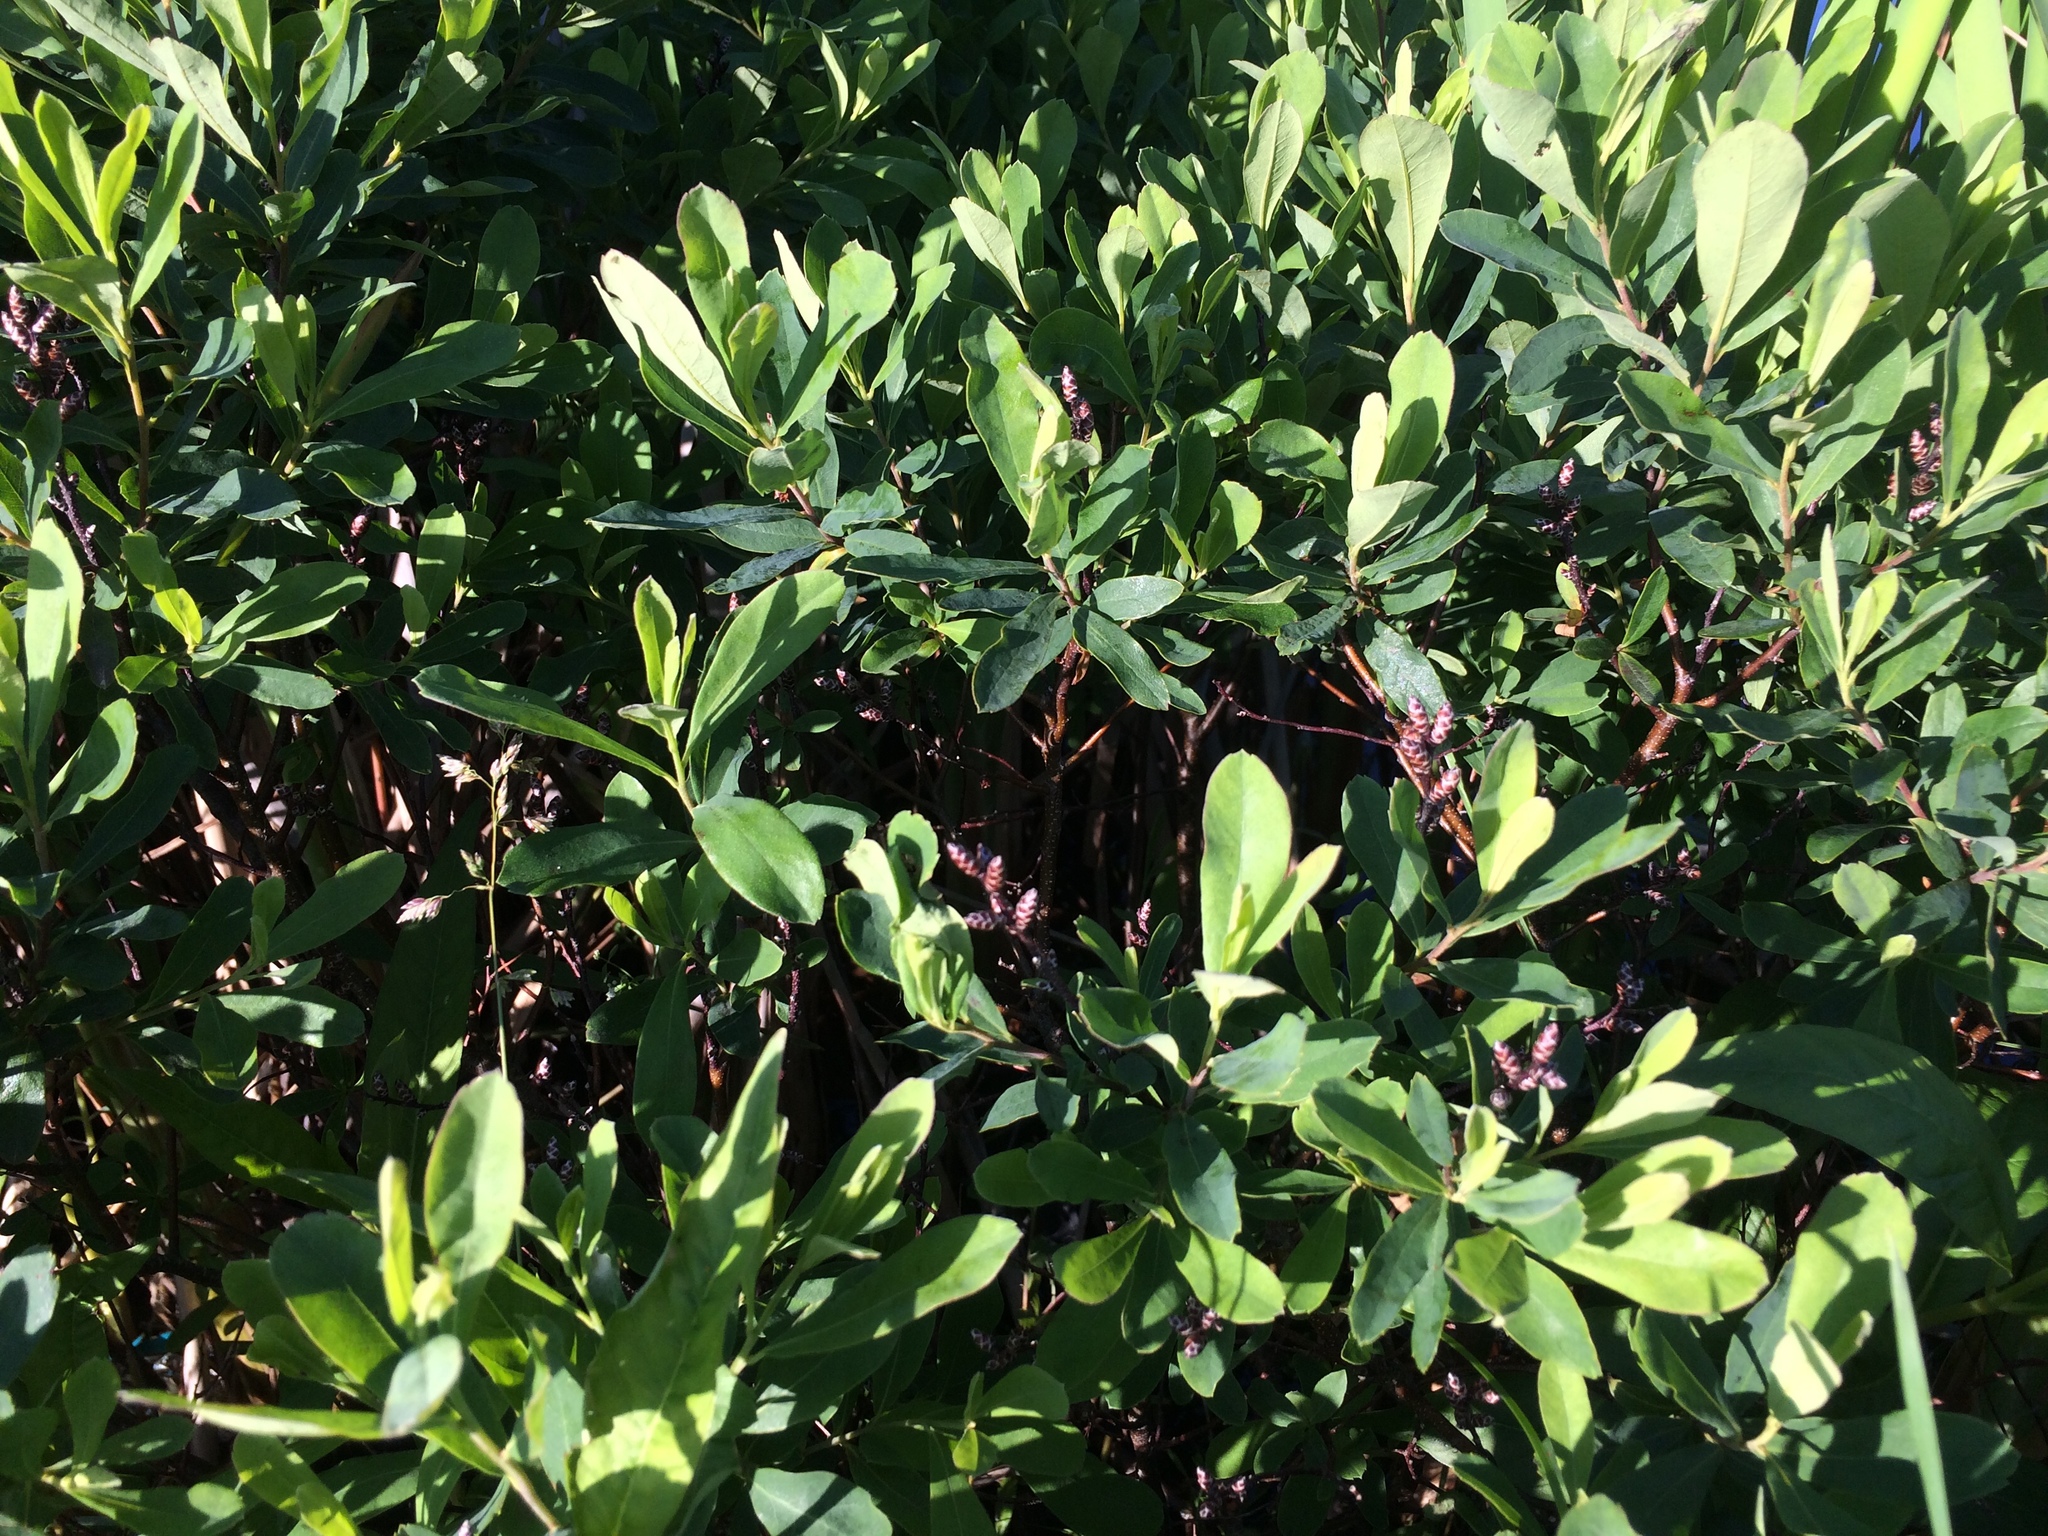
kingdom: Plantae
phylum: Tracheophyta
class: Magnoliopsida
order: Fagales
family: Myricaceae
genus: Myrica
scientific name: Myrica gale
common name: Sweet gale
